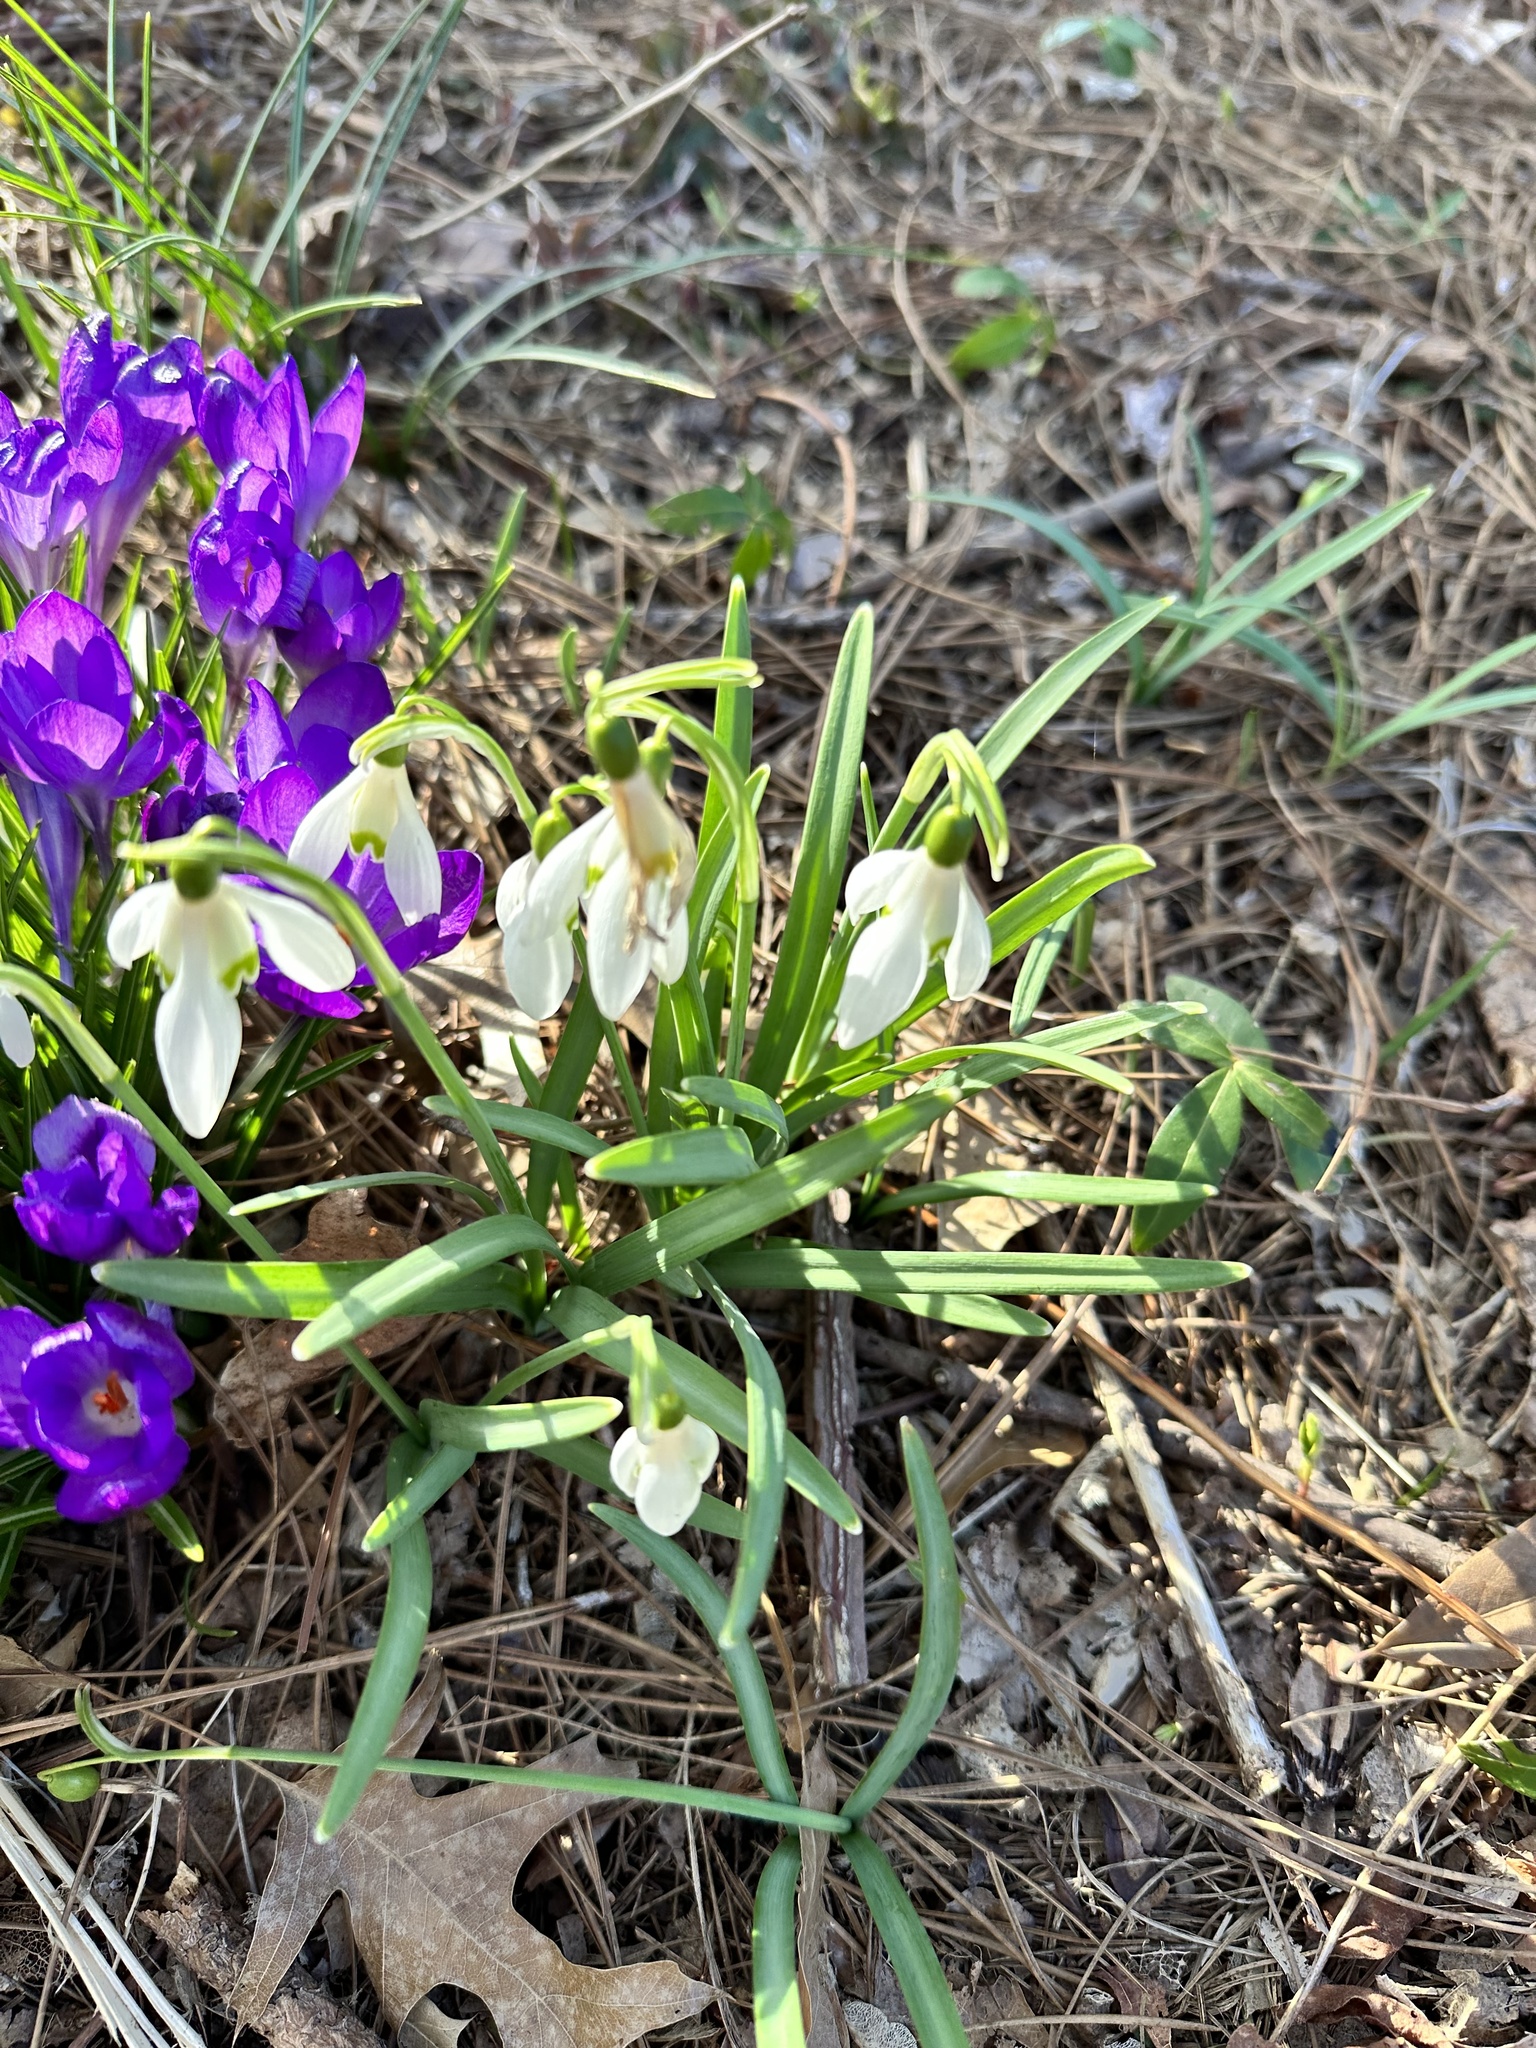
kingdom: Plantae
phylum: Tracheophyta
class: Liliopsida
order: Asparagales
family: Amaryllidaceae
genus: Galanthus
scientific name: Galanthus nivalis
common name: Snowdrop
